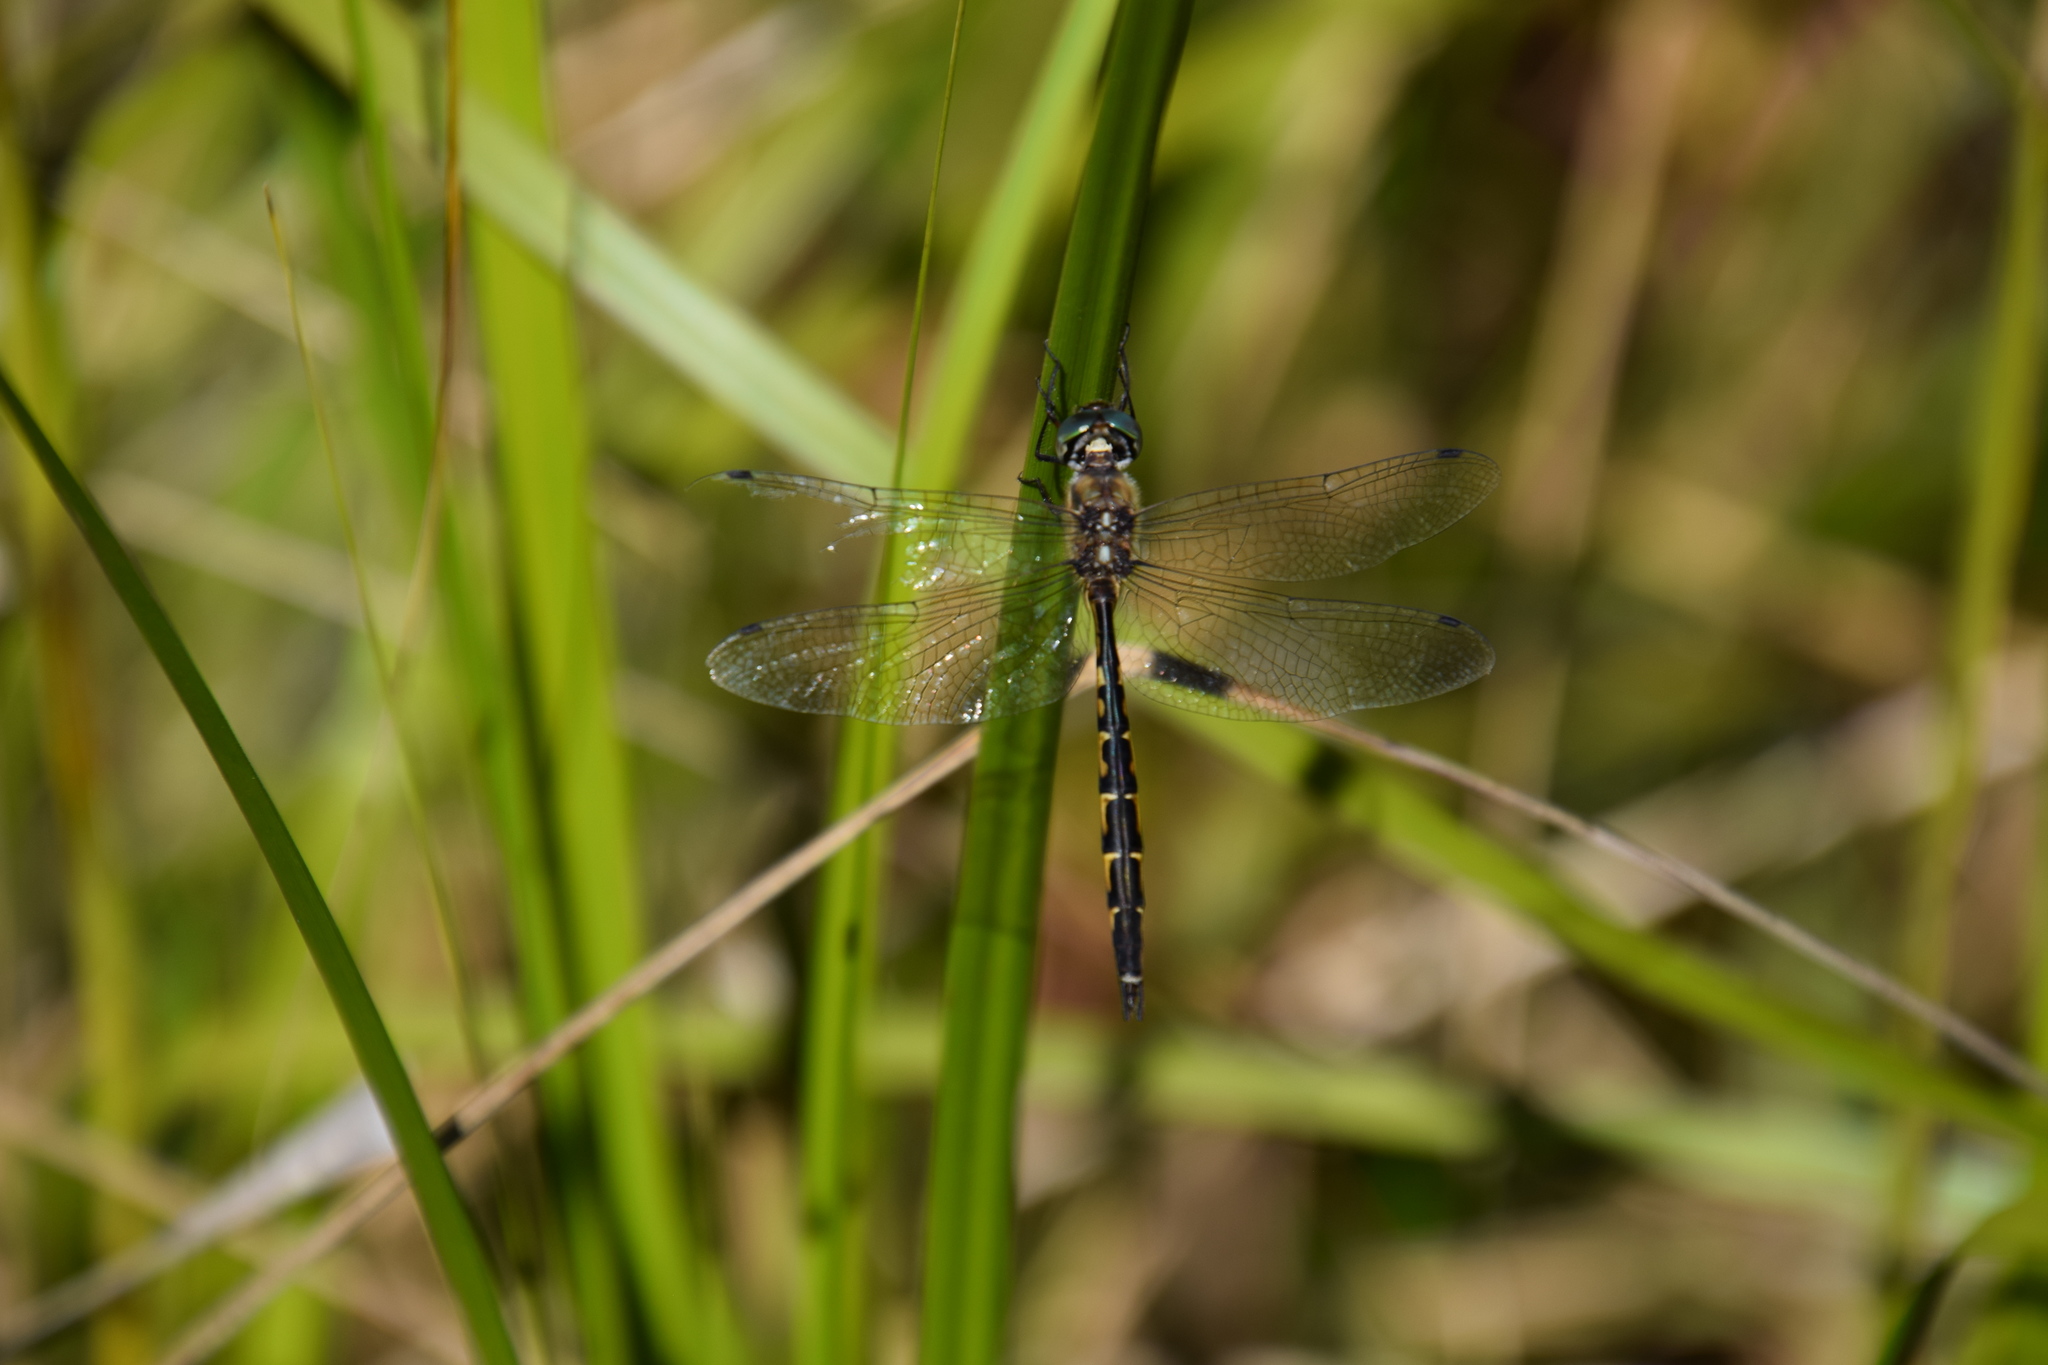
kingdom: Animalia
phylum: Arthropoda
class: Insecta
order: Odonata
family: Corduliidae
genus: Hemicordulia
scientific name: Hemicordulia australiae
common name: Sentry dragonfly
